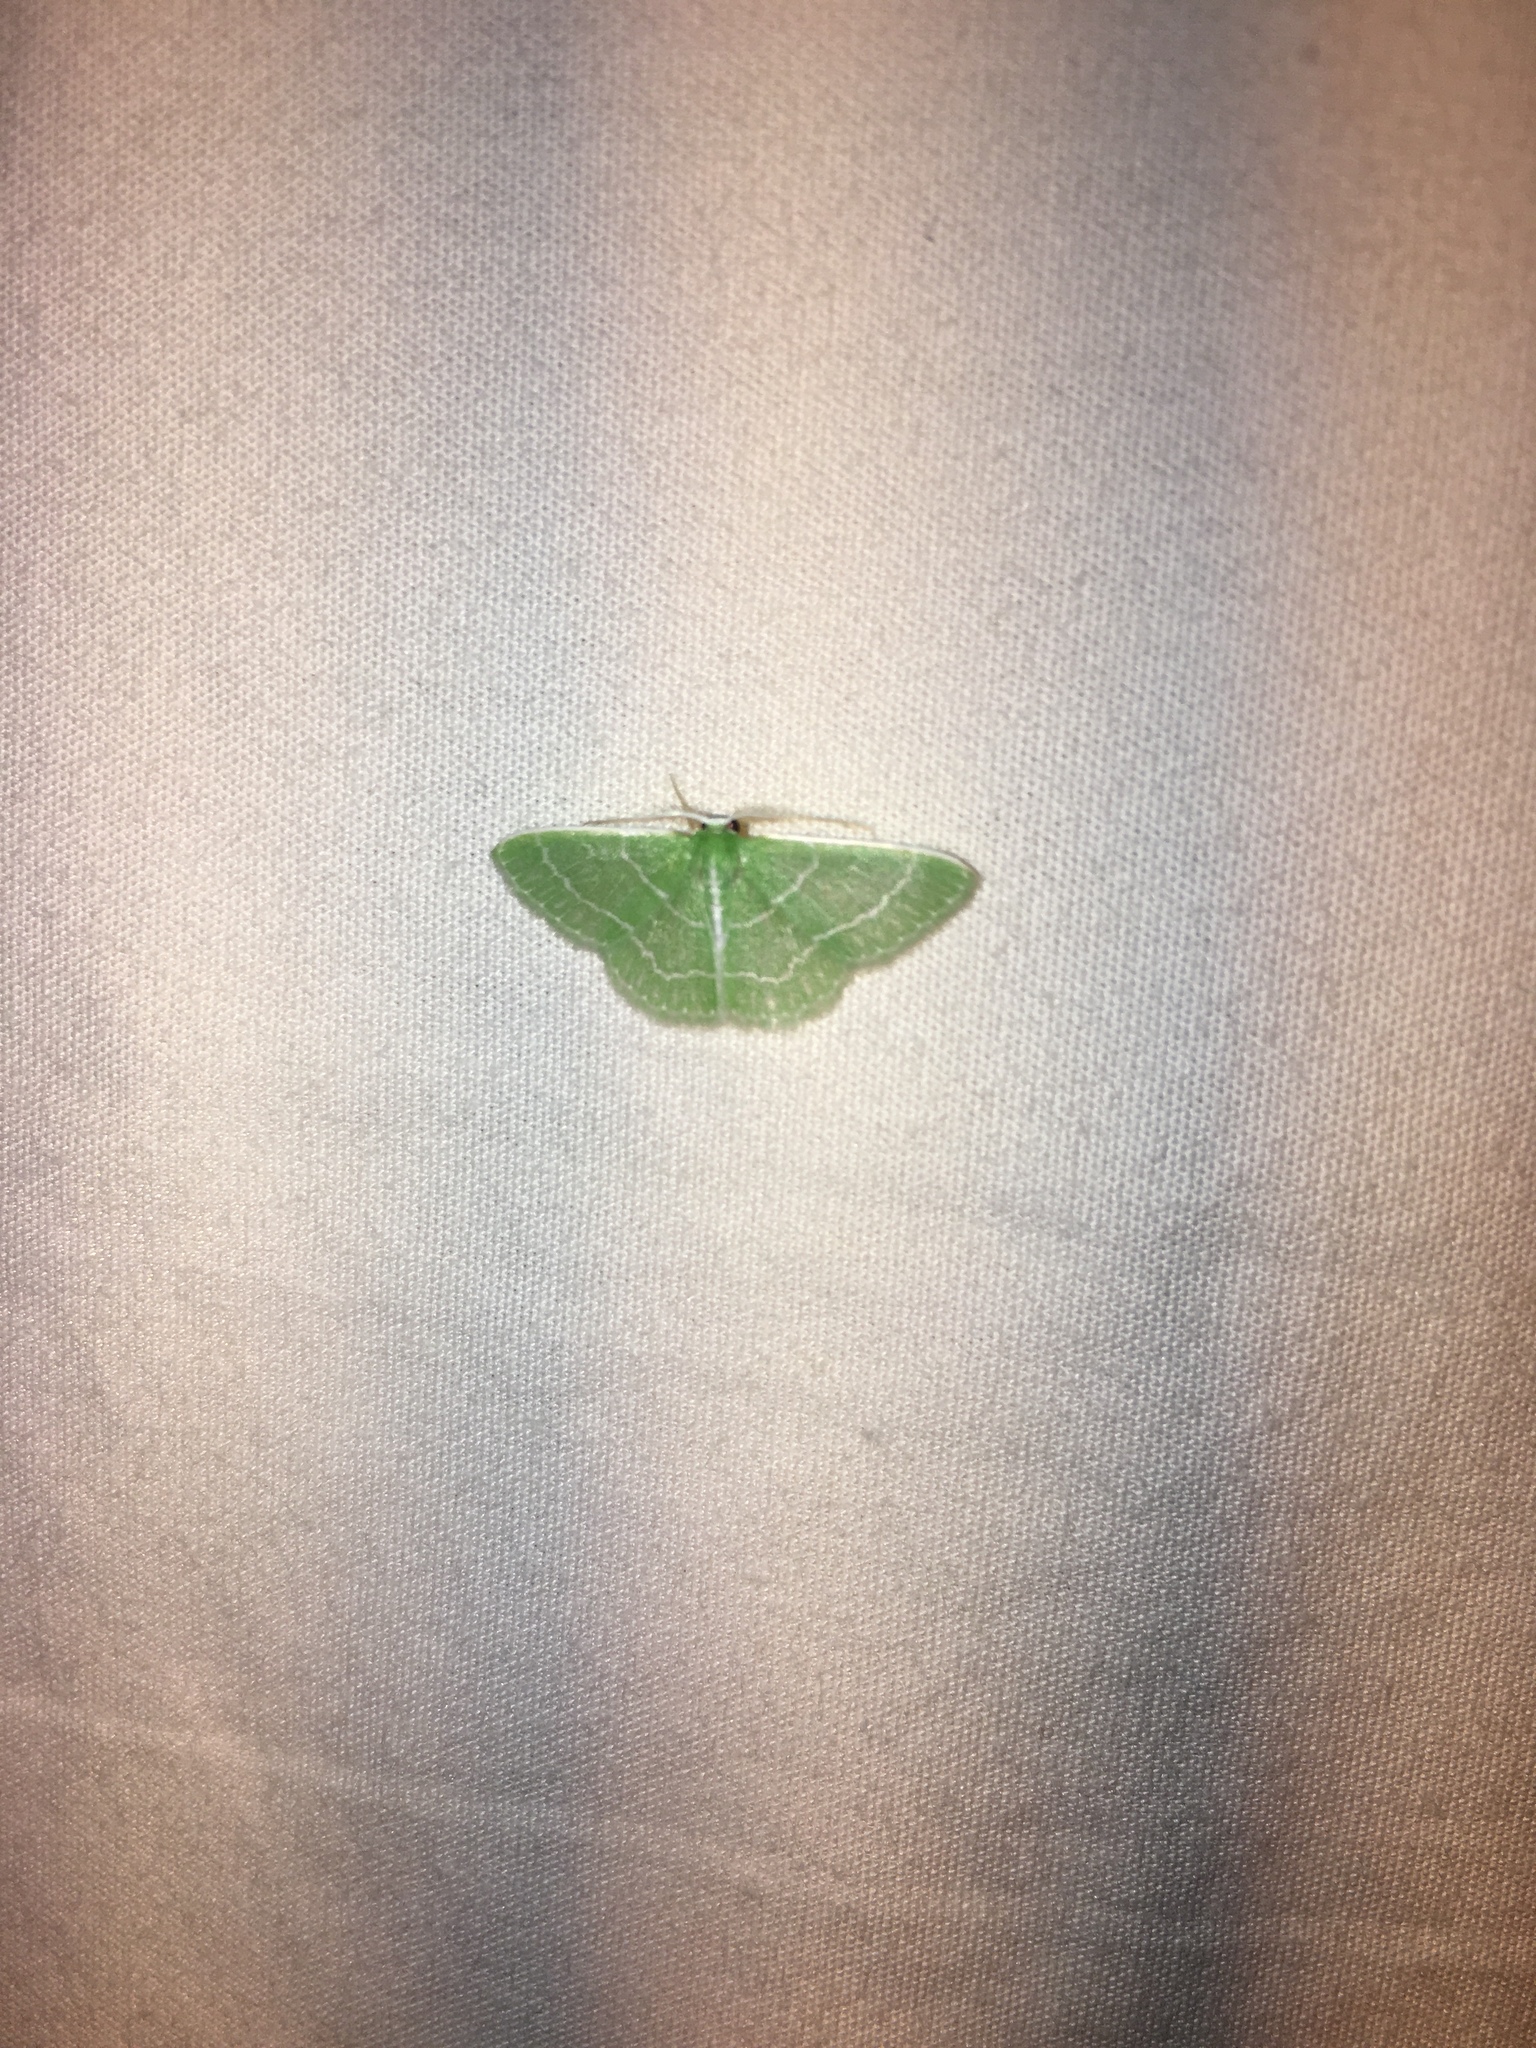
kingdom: Animalia
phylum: Arthropoda
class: Insecta
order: Lepidoptera
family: Geometridae
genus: Synchlora
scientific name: Synchlora aerata
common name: Wavy-lined emerald
